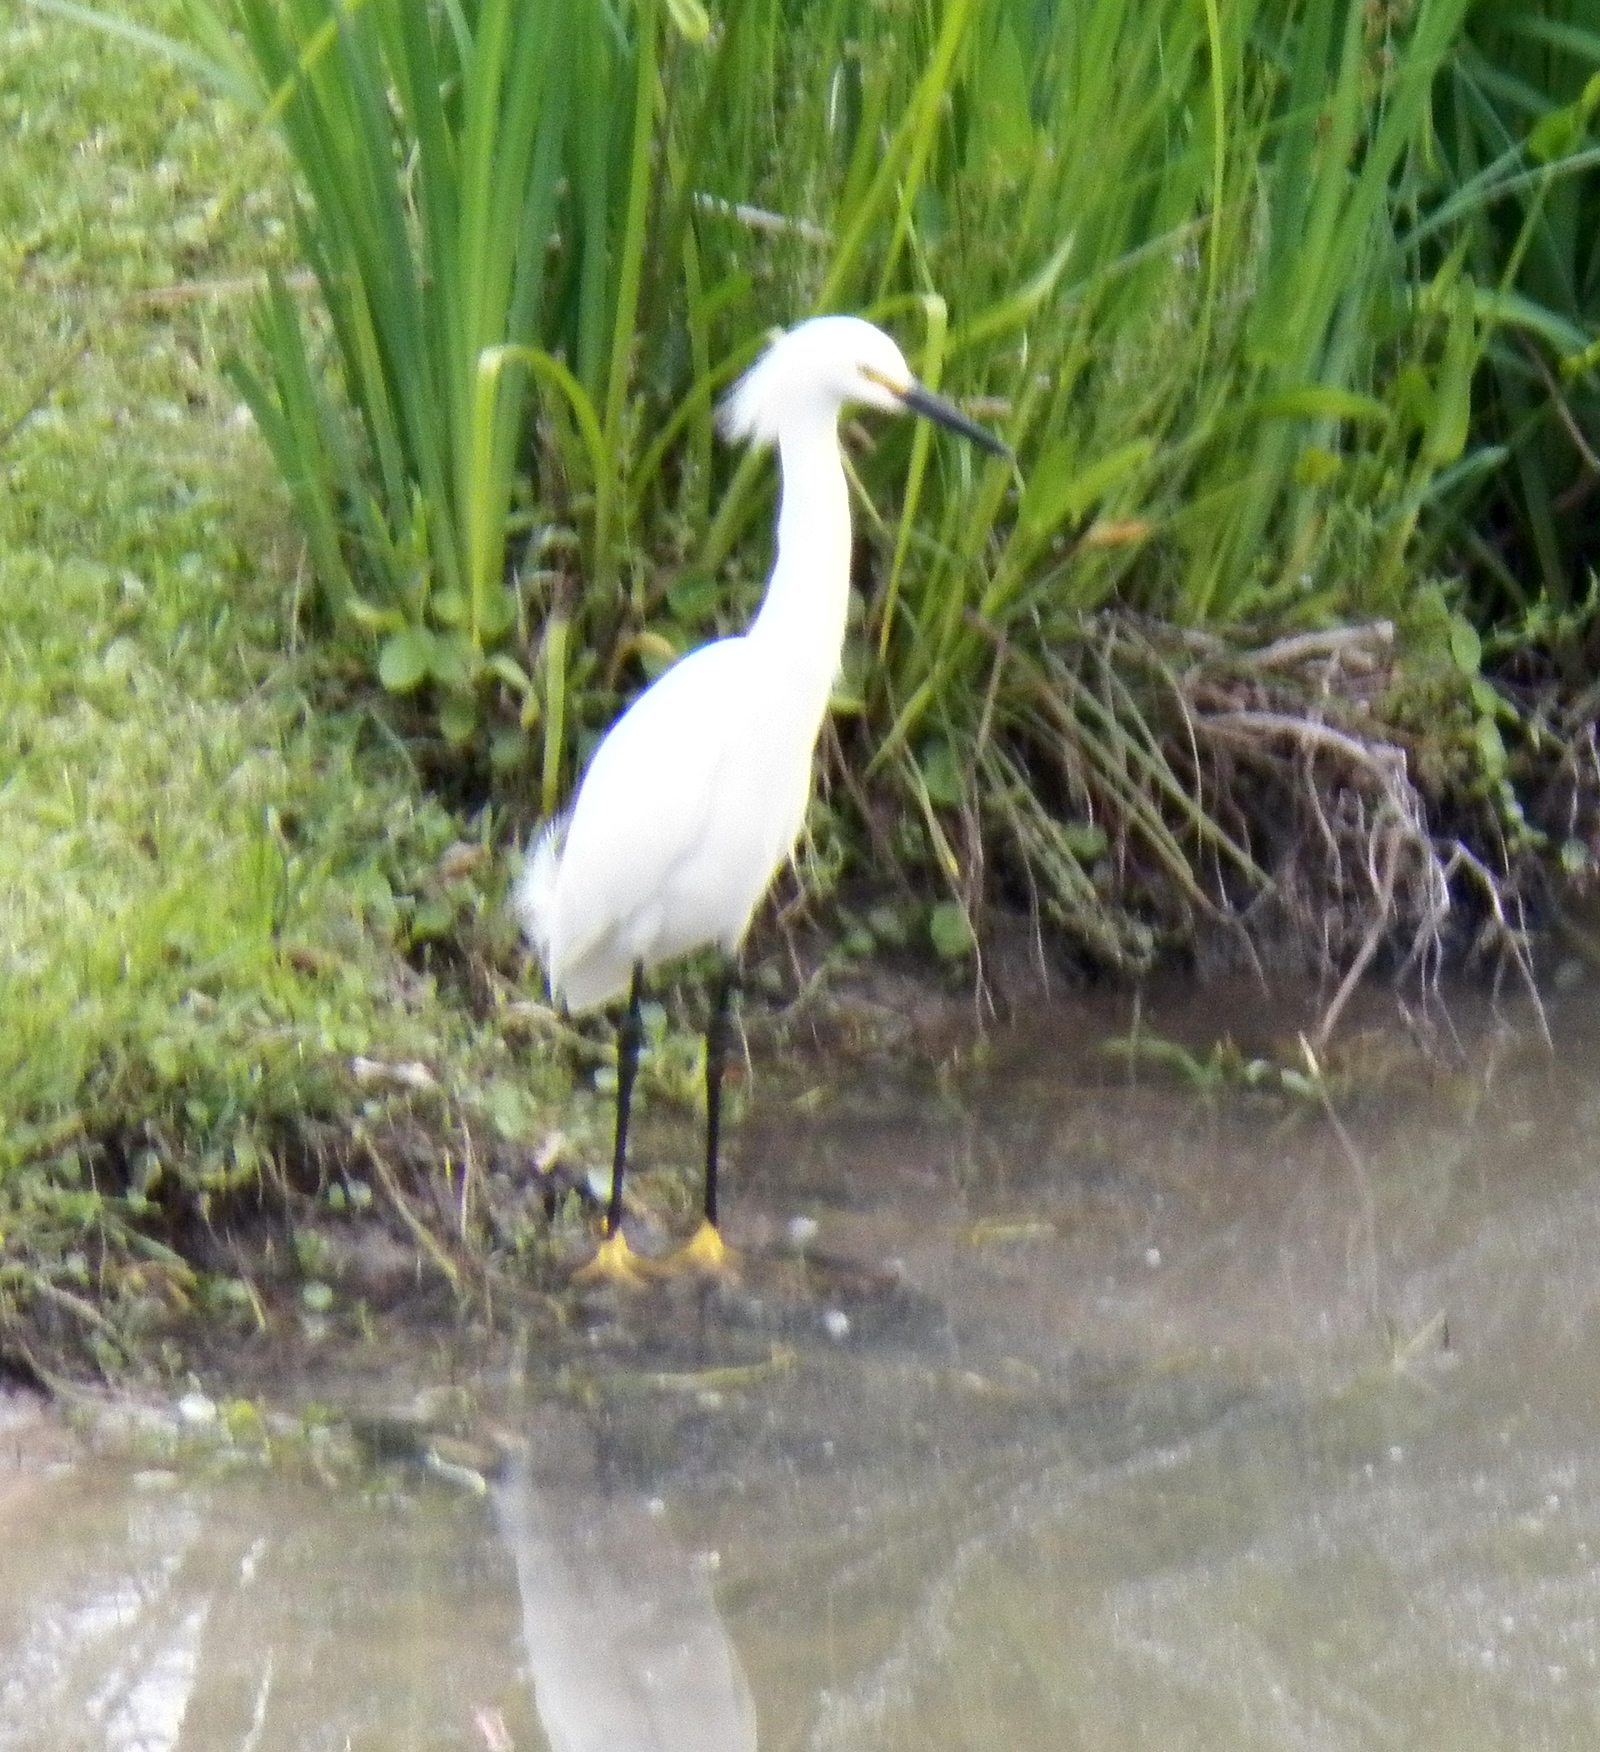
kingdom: Animalia
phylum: Chordata
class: Aves
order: Pelecaniformes
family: Ardeidae
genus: Egretta
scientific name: Egretta thula
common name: Snowy egret
